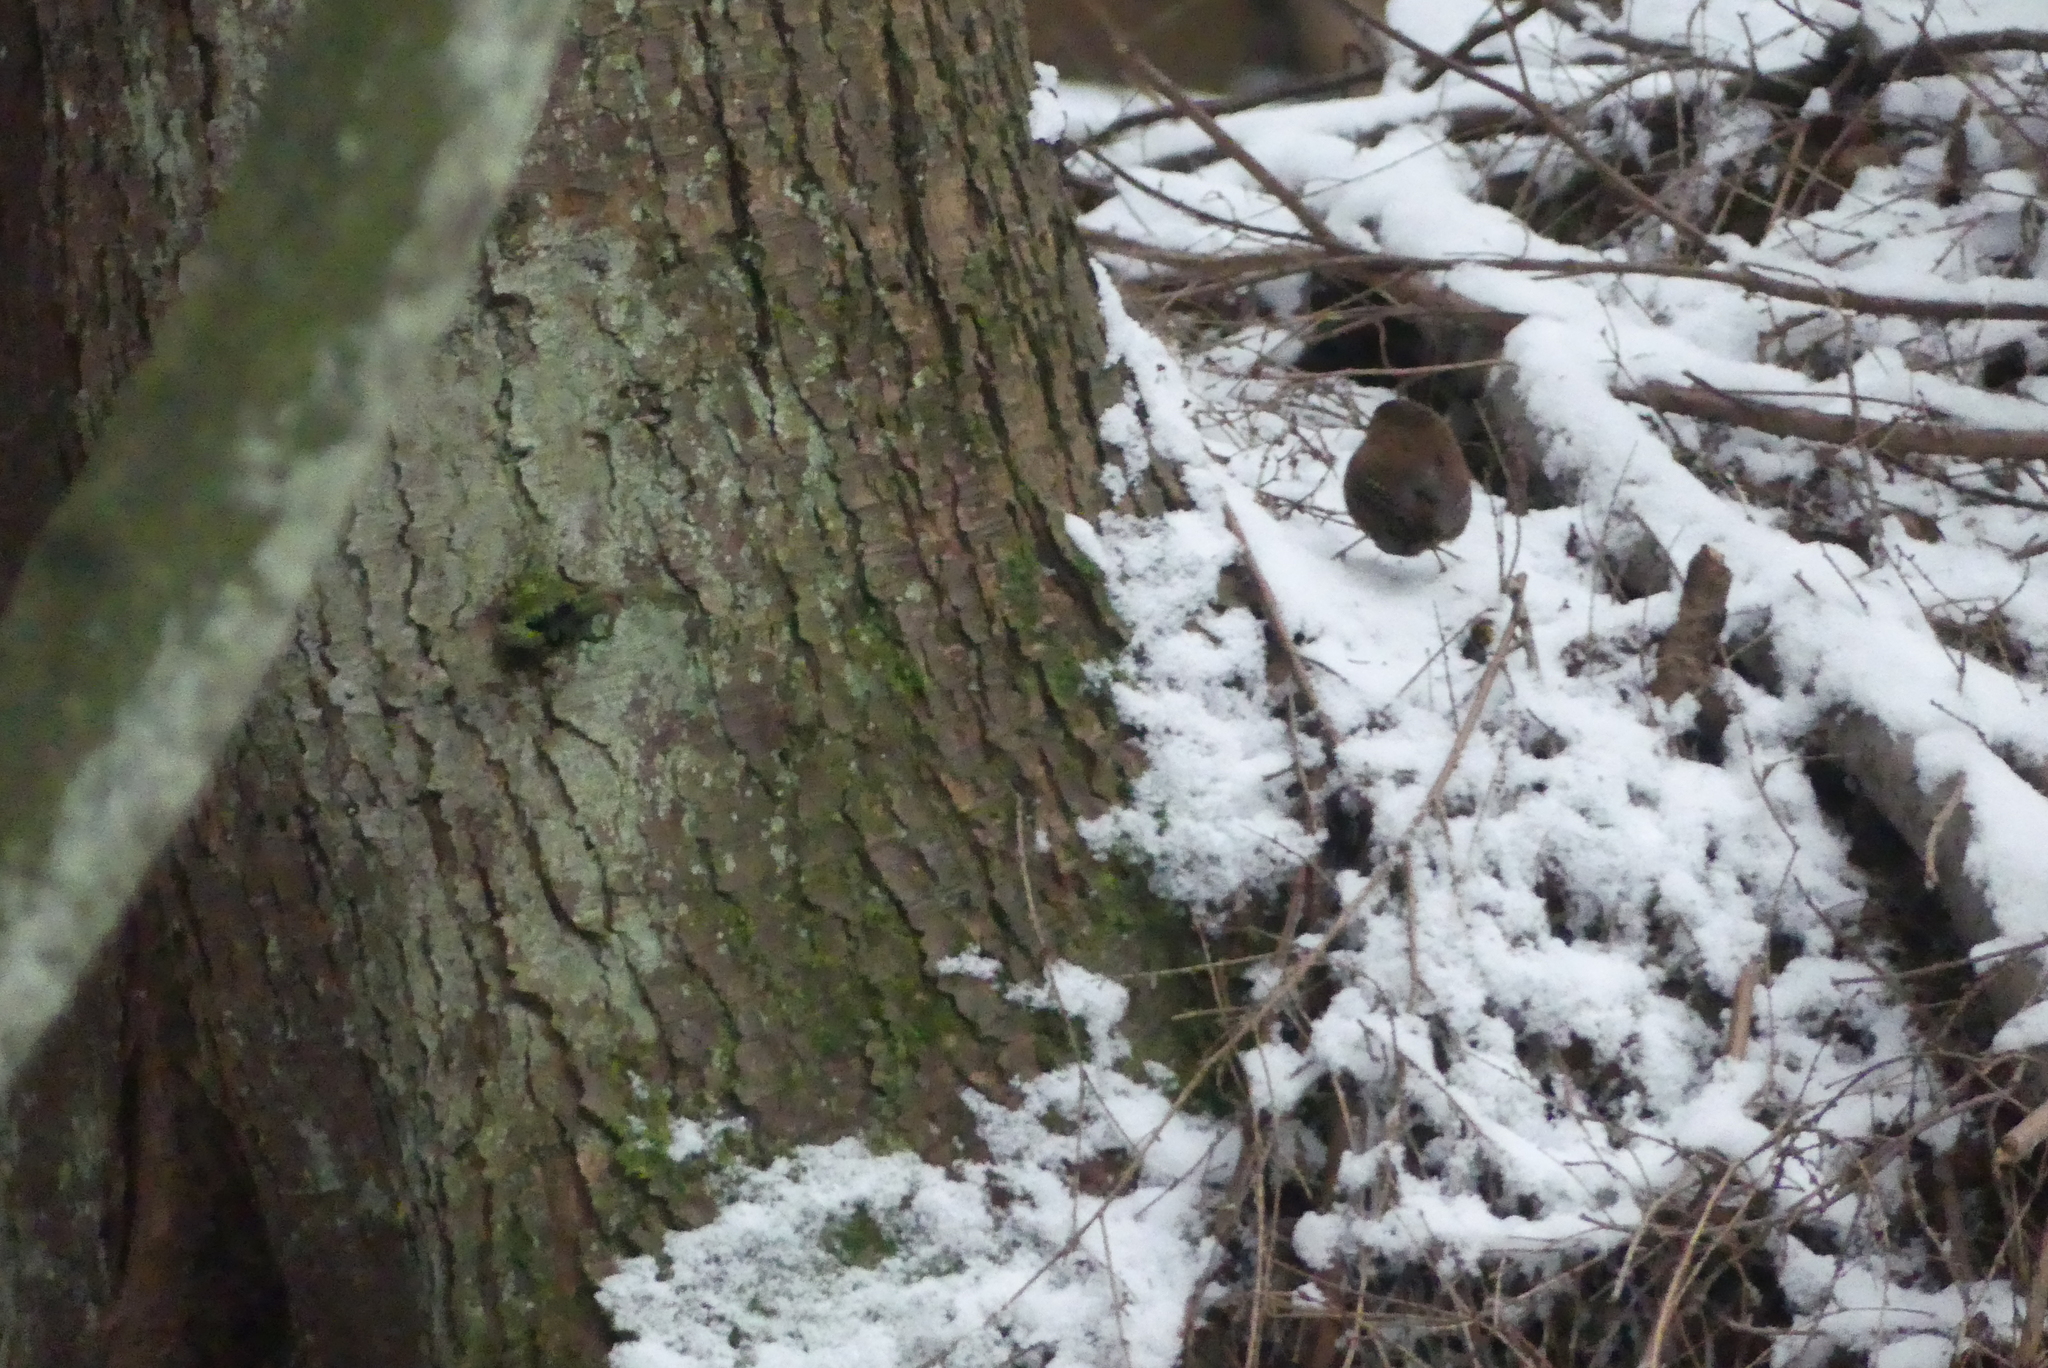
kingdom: Animalia
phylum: Chordata
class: Aves
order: Passeriformes
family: Troglodytidae
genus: Troglodytes
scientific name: Troglodytes pacificus
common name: Pacific wren
